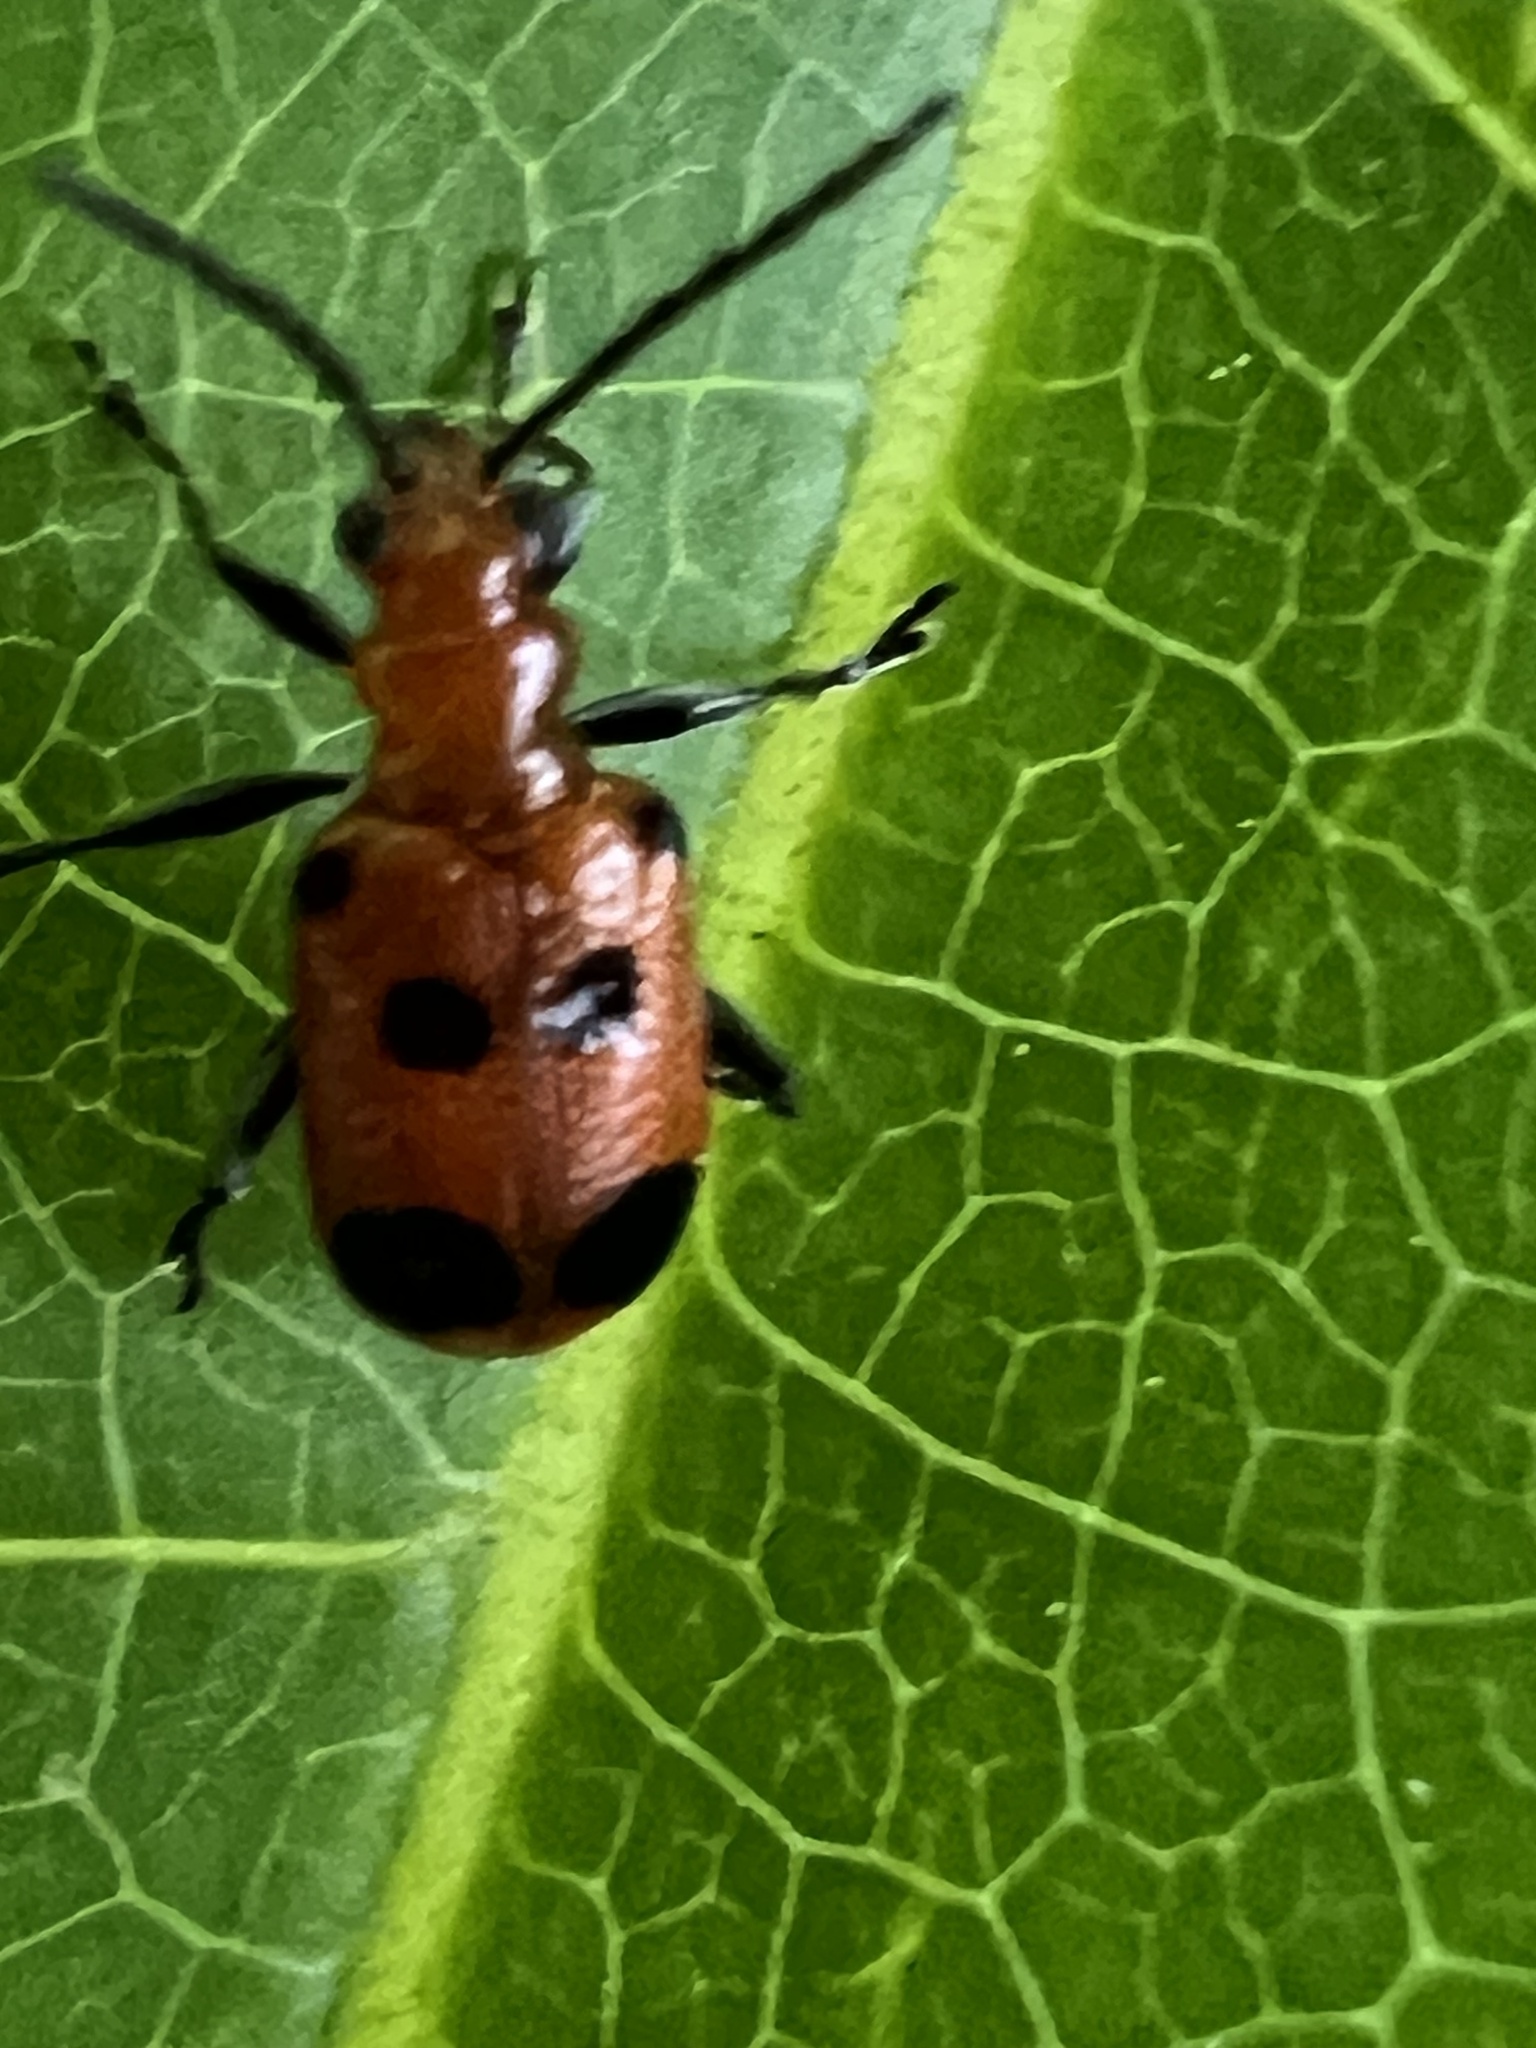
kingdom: Animalia
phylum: Arthropoda
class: Insecta
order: Coleoptera
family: Chrysomelidae
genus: Neolema
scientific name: Neolema sexpunctata
